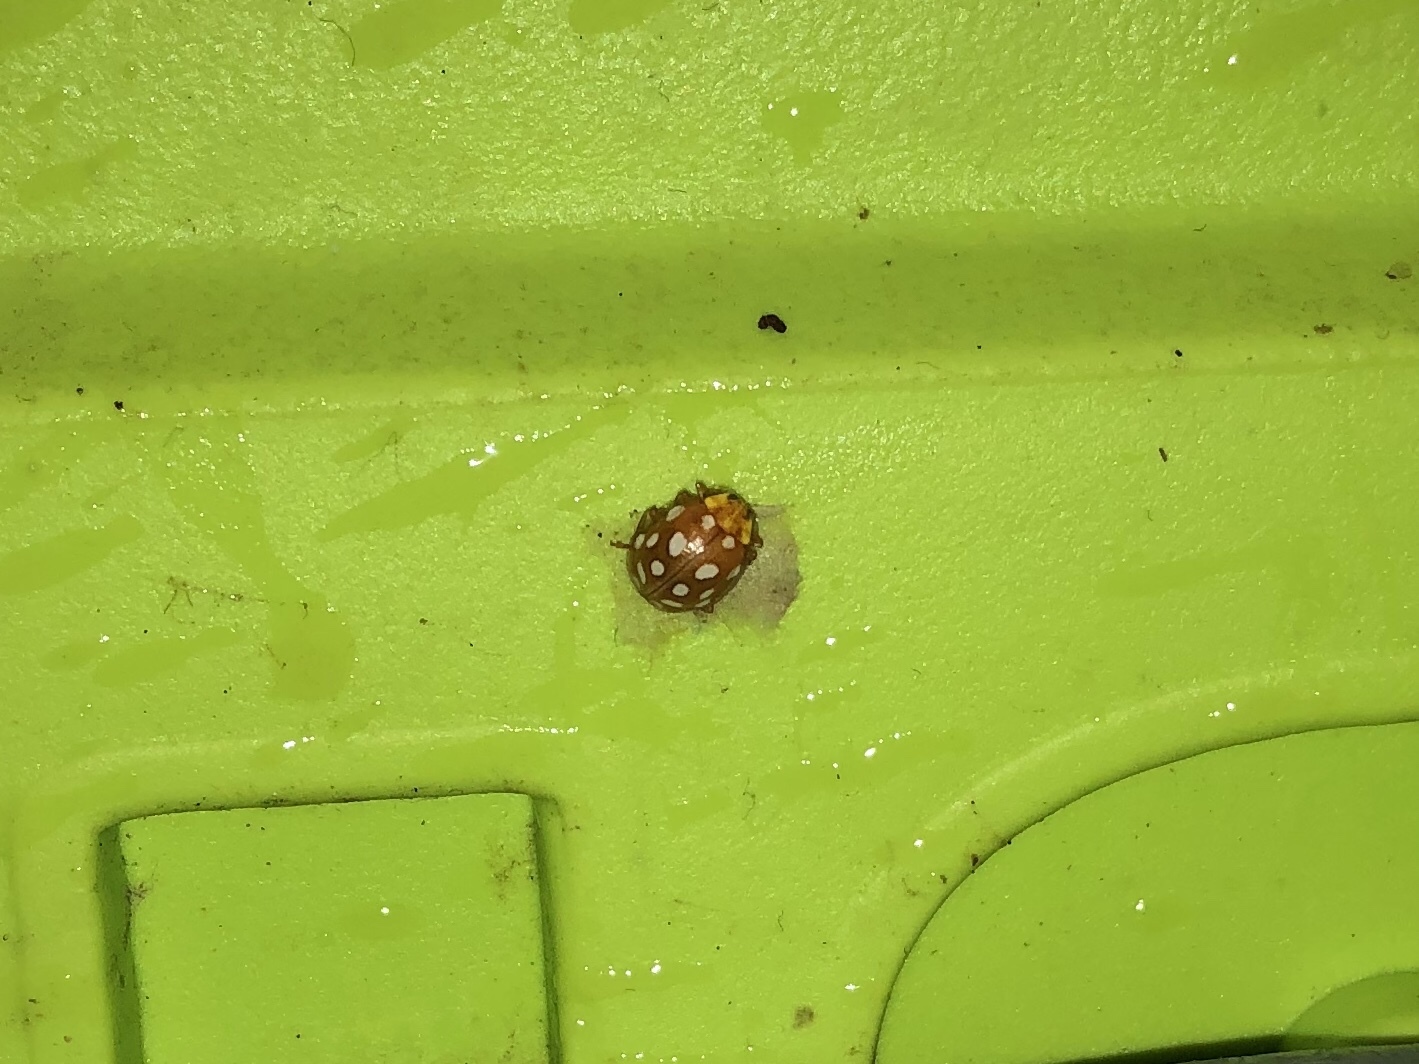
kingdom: Animalia
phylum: Arthropoda
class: Insecta
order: Coleoptera
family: Coccinellidae
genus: Calvia
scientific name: Calvia quatuordecimguttata
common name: Cream-spot ladybird
